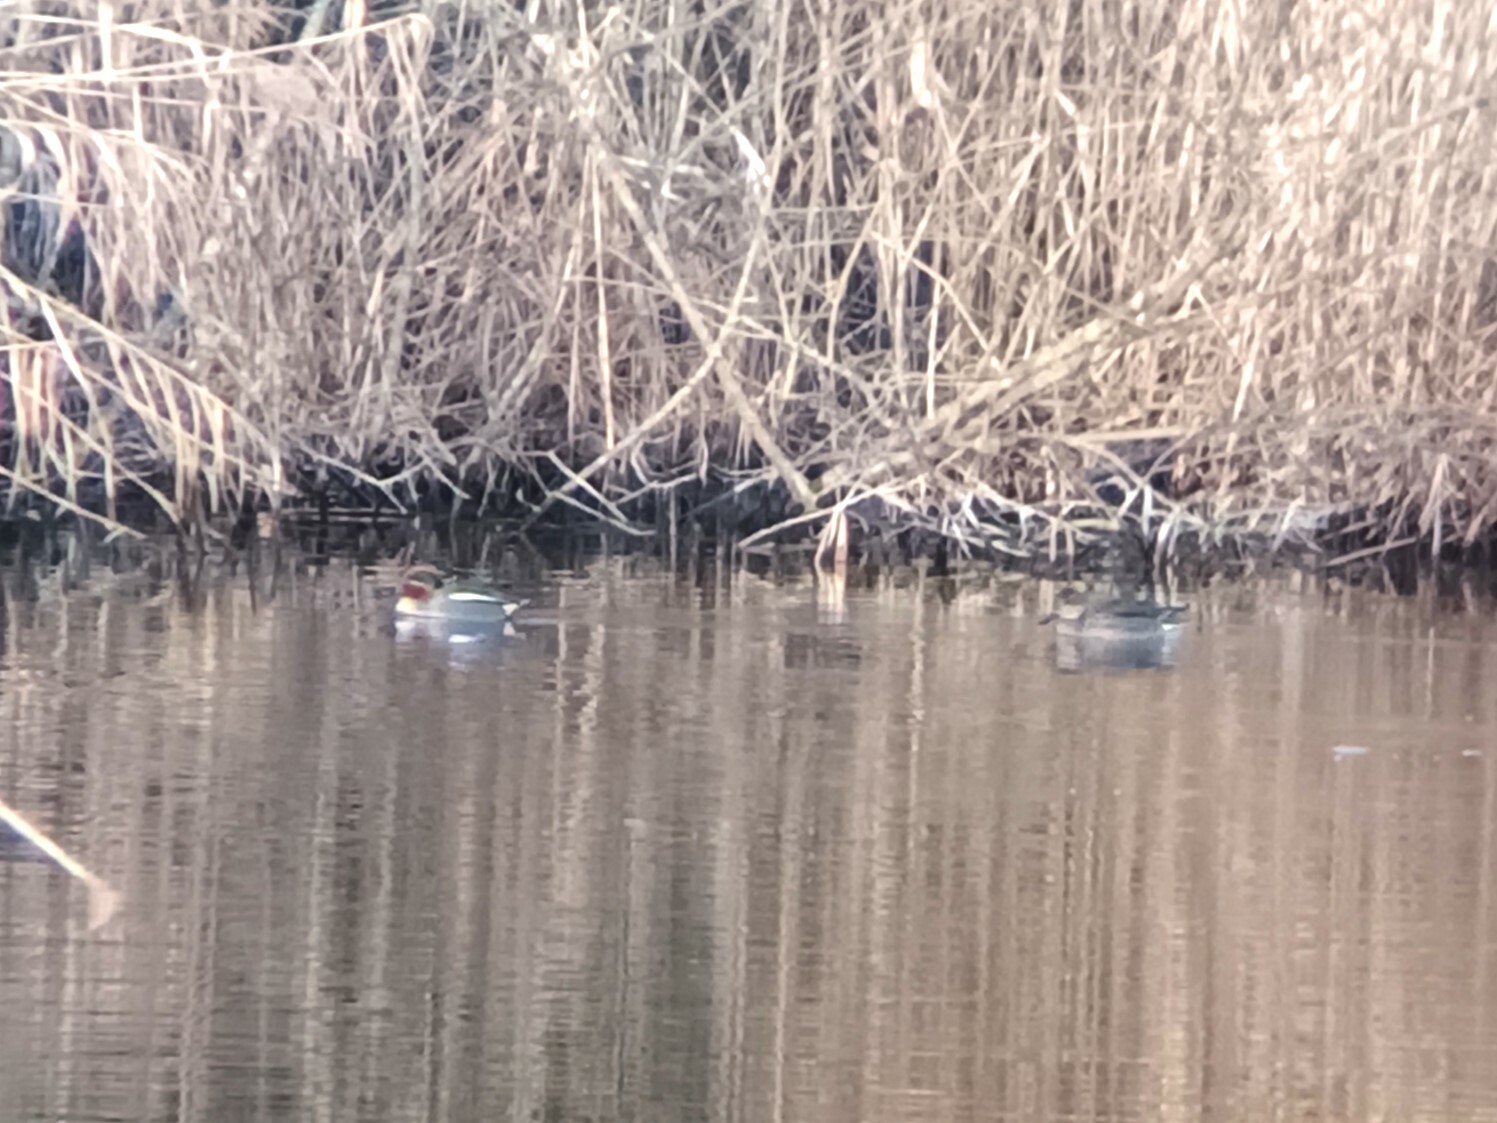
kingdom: Animalia
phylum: Chordata
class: Aves
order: Anseriformes
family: Anatidae
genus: Anas
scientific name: Anas crecca
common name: Eurasian teal
